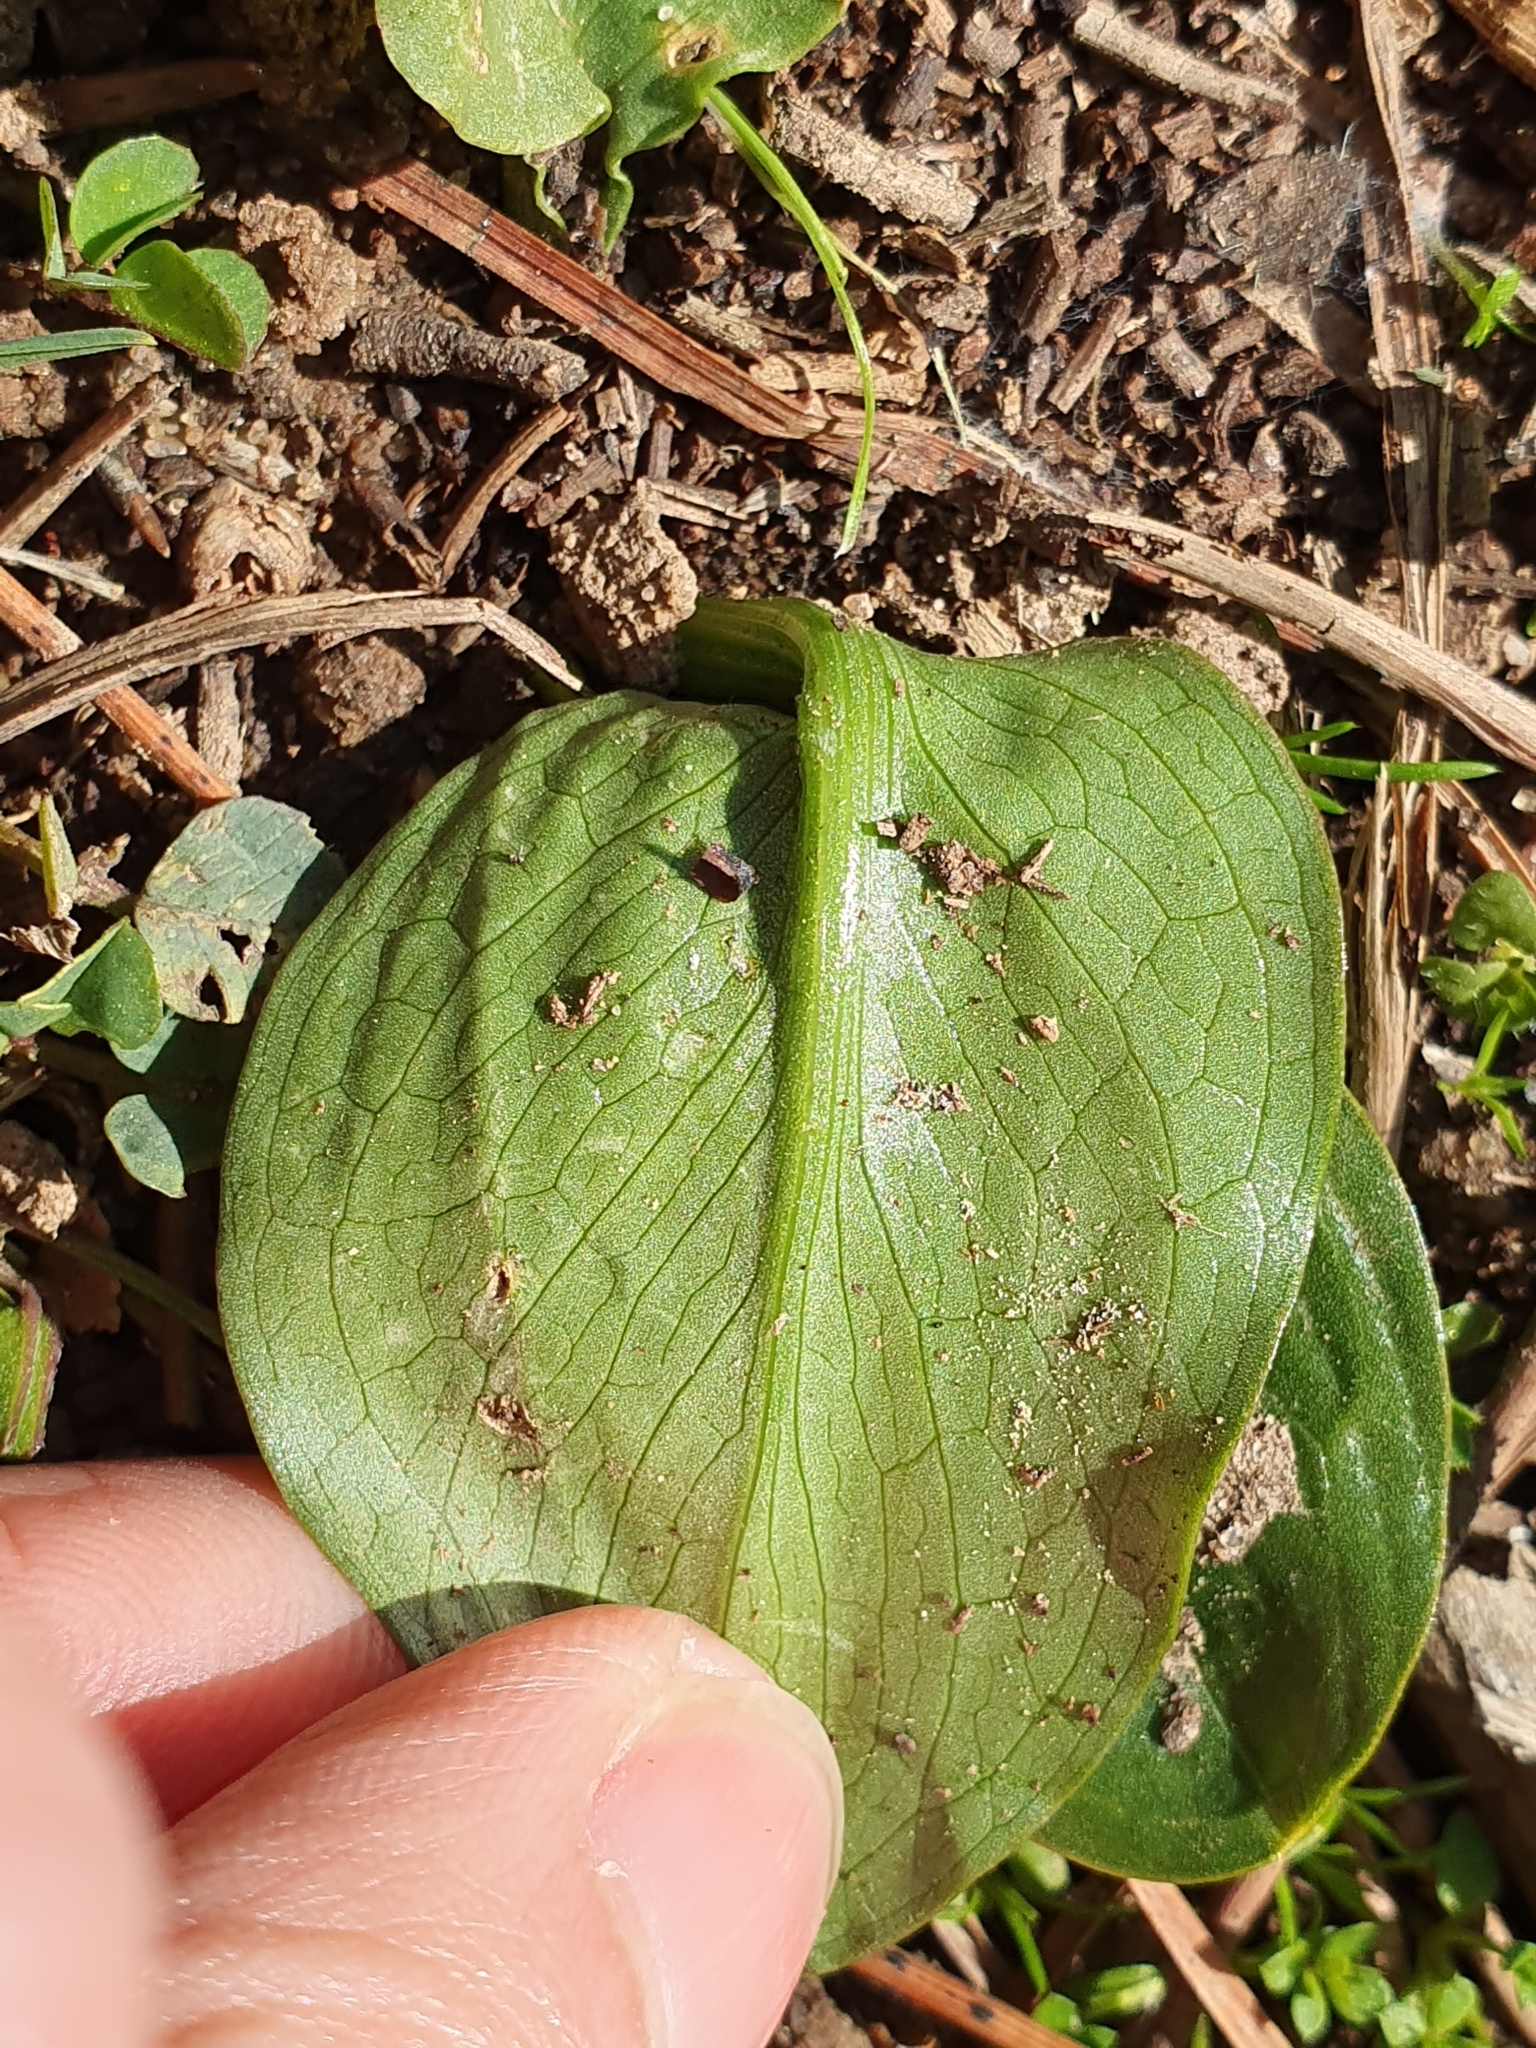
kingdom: Plantae
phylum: Tracheophyta
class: Liliopsida
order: Alismatales
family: Araceae
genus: Ambrosina
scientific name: Ambrosina bassii
